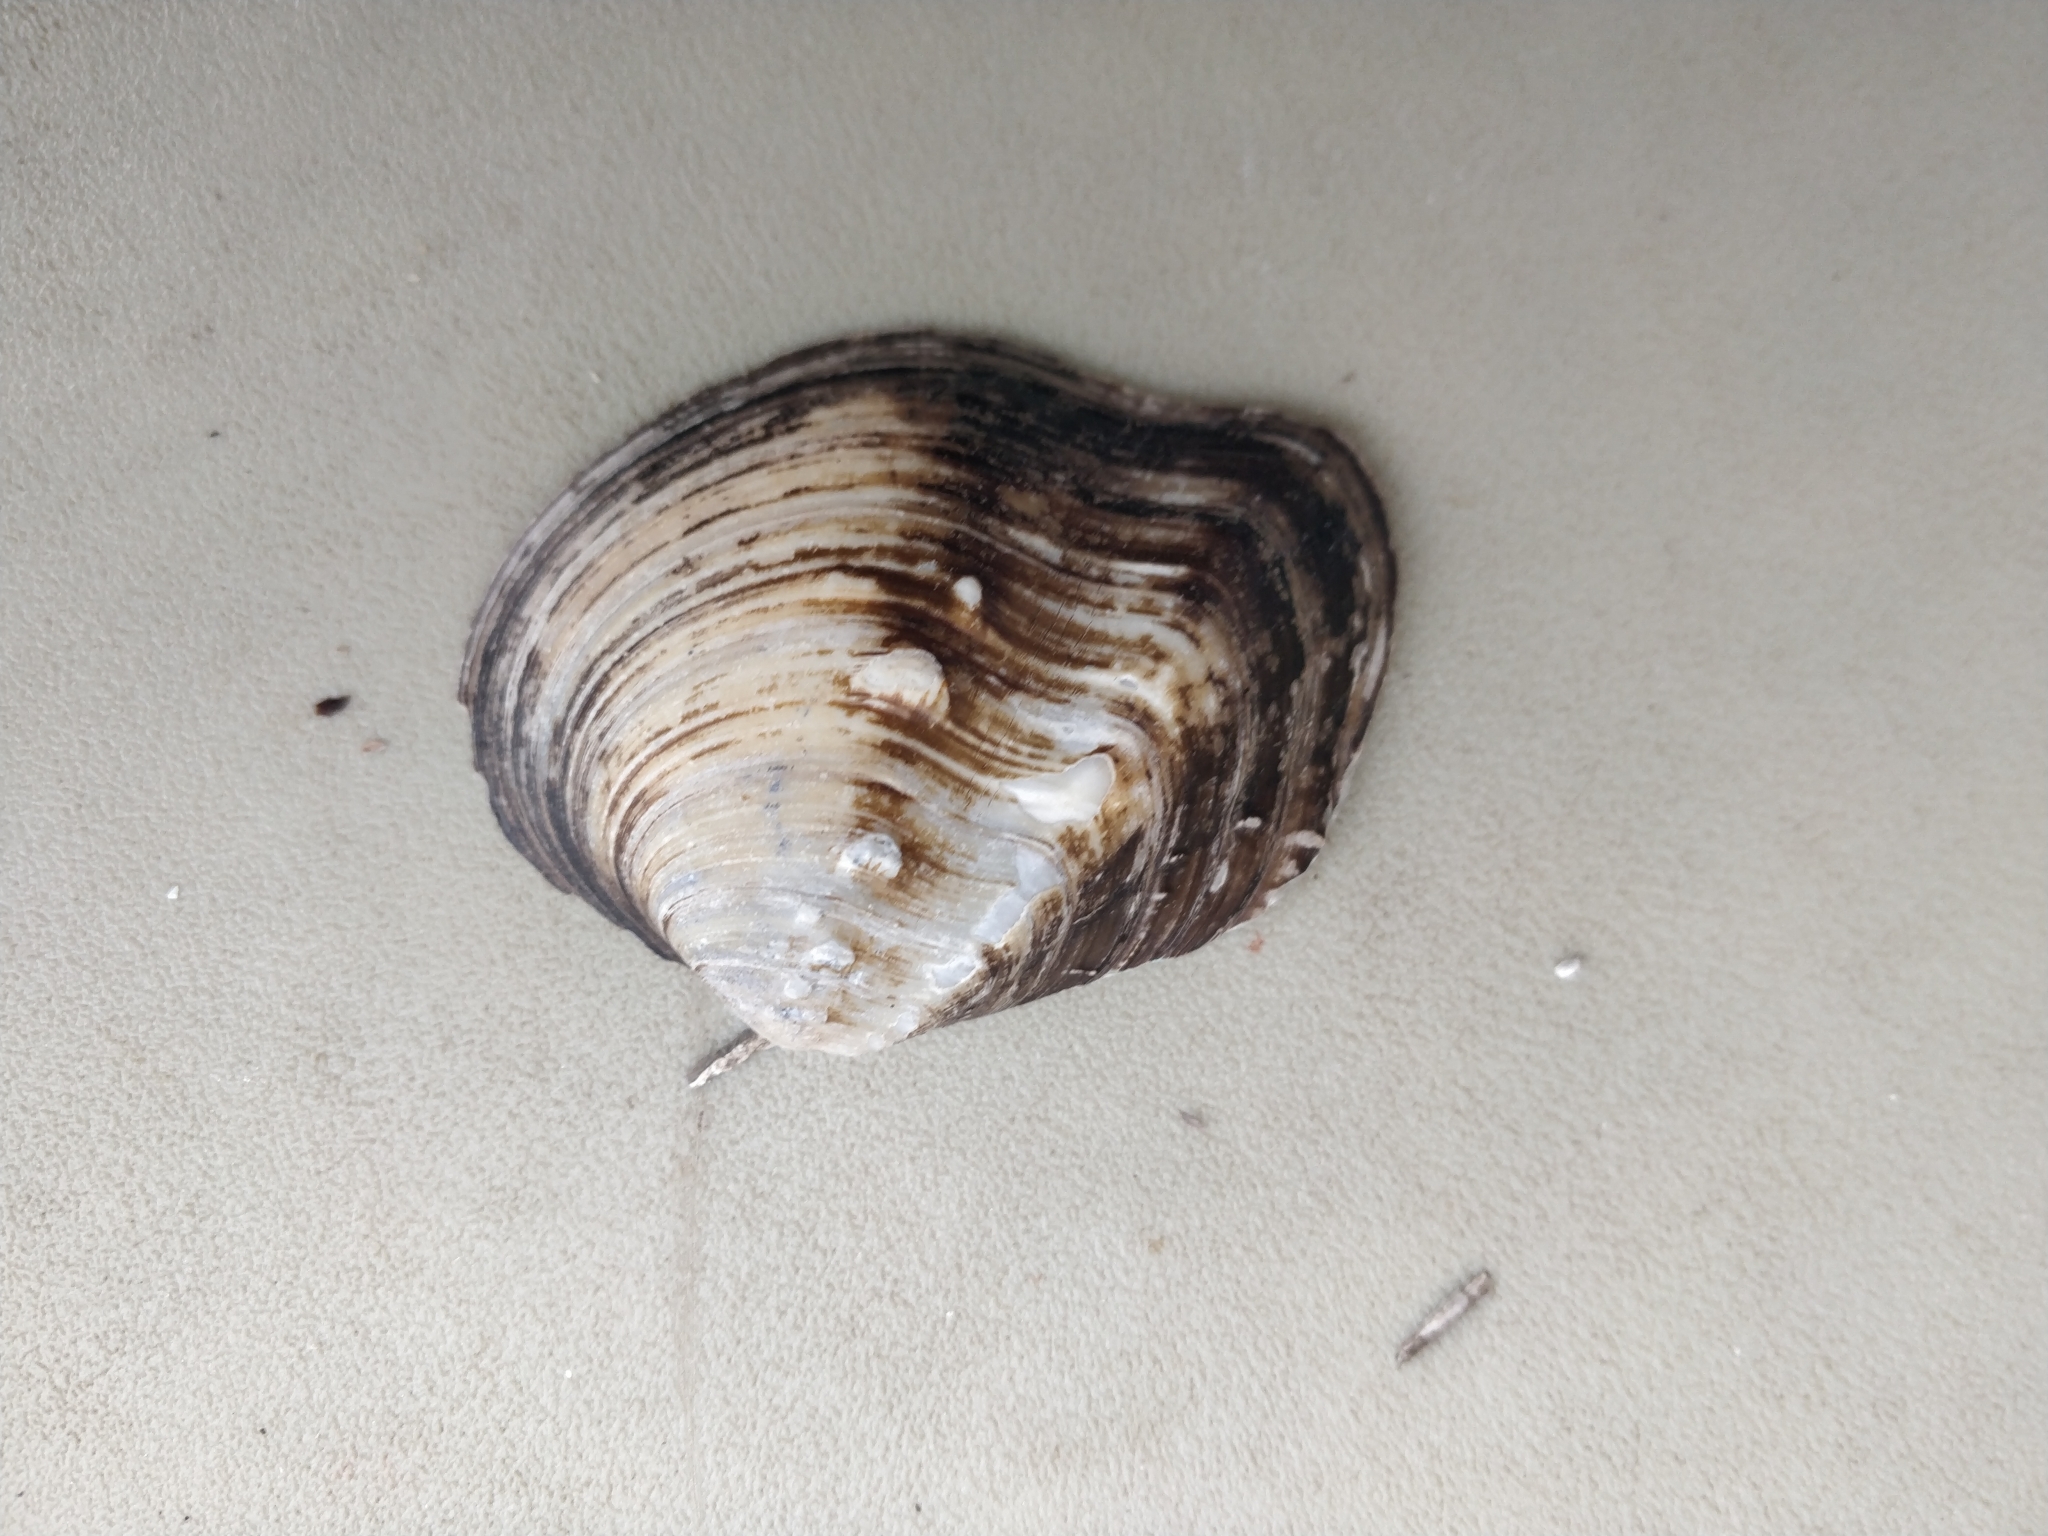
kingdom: Animalia
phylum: Mollusca
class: Bivalvia
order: Unionida
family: Unionidae
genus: Quadrula
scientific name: Quadrula quadrula
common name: Mapleleaf
